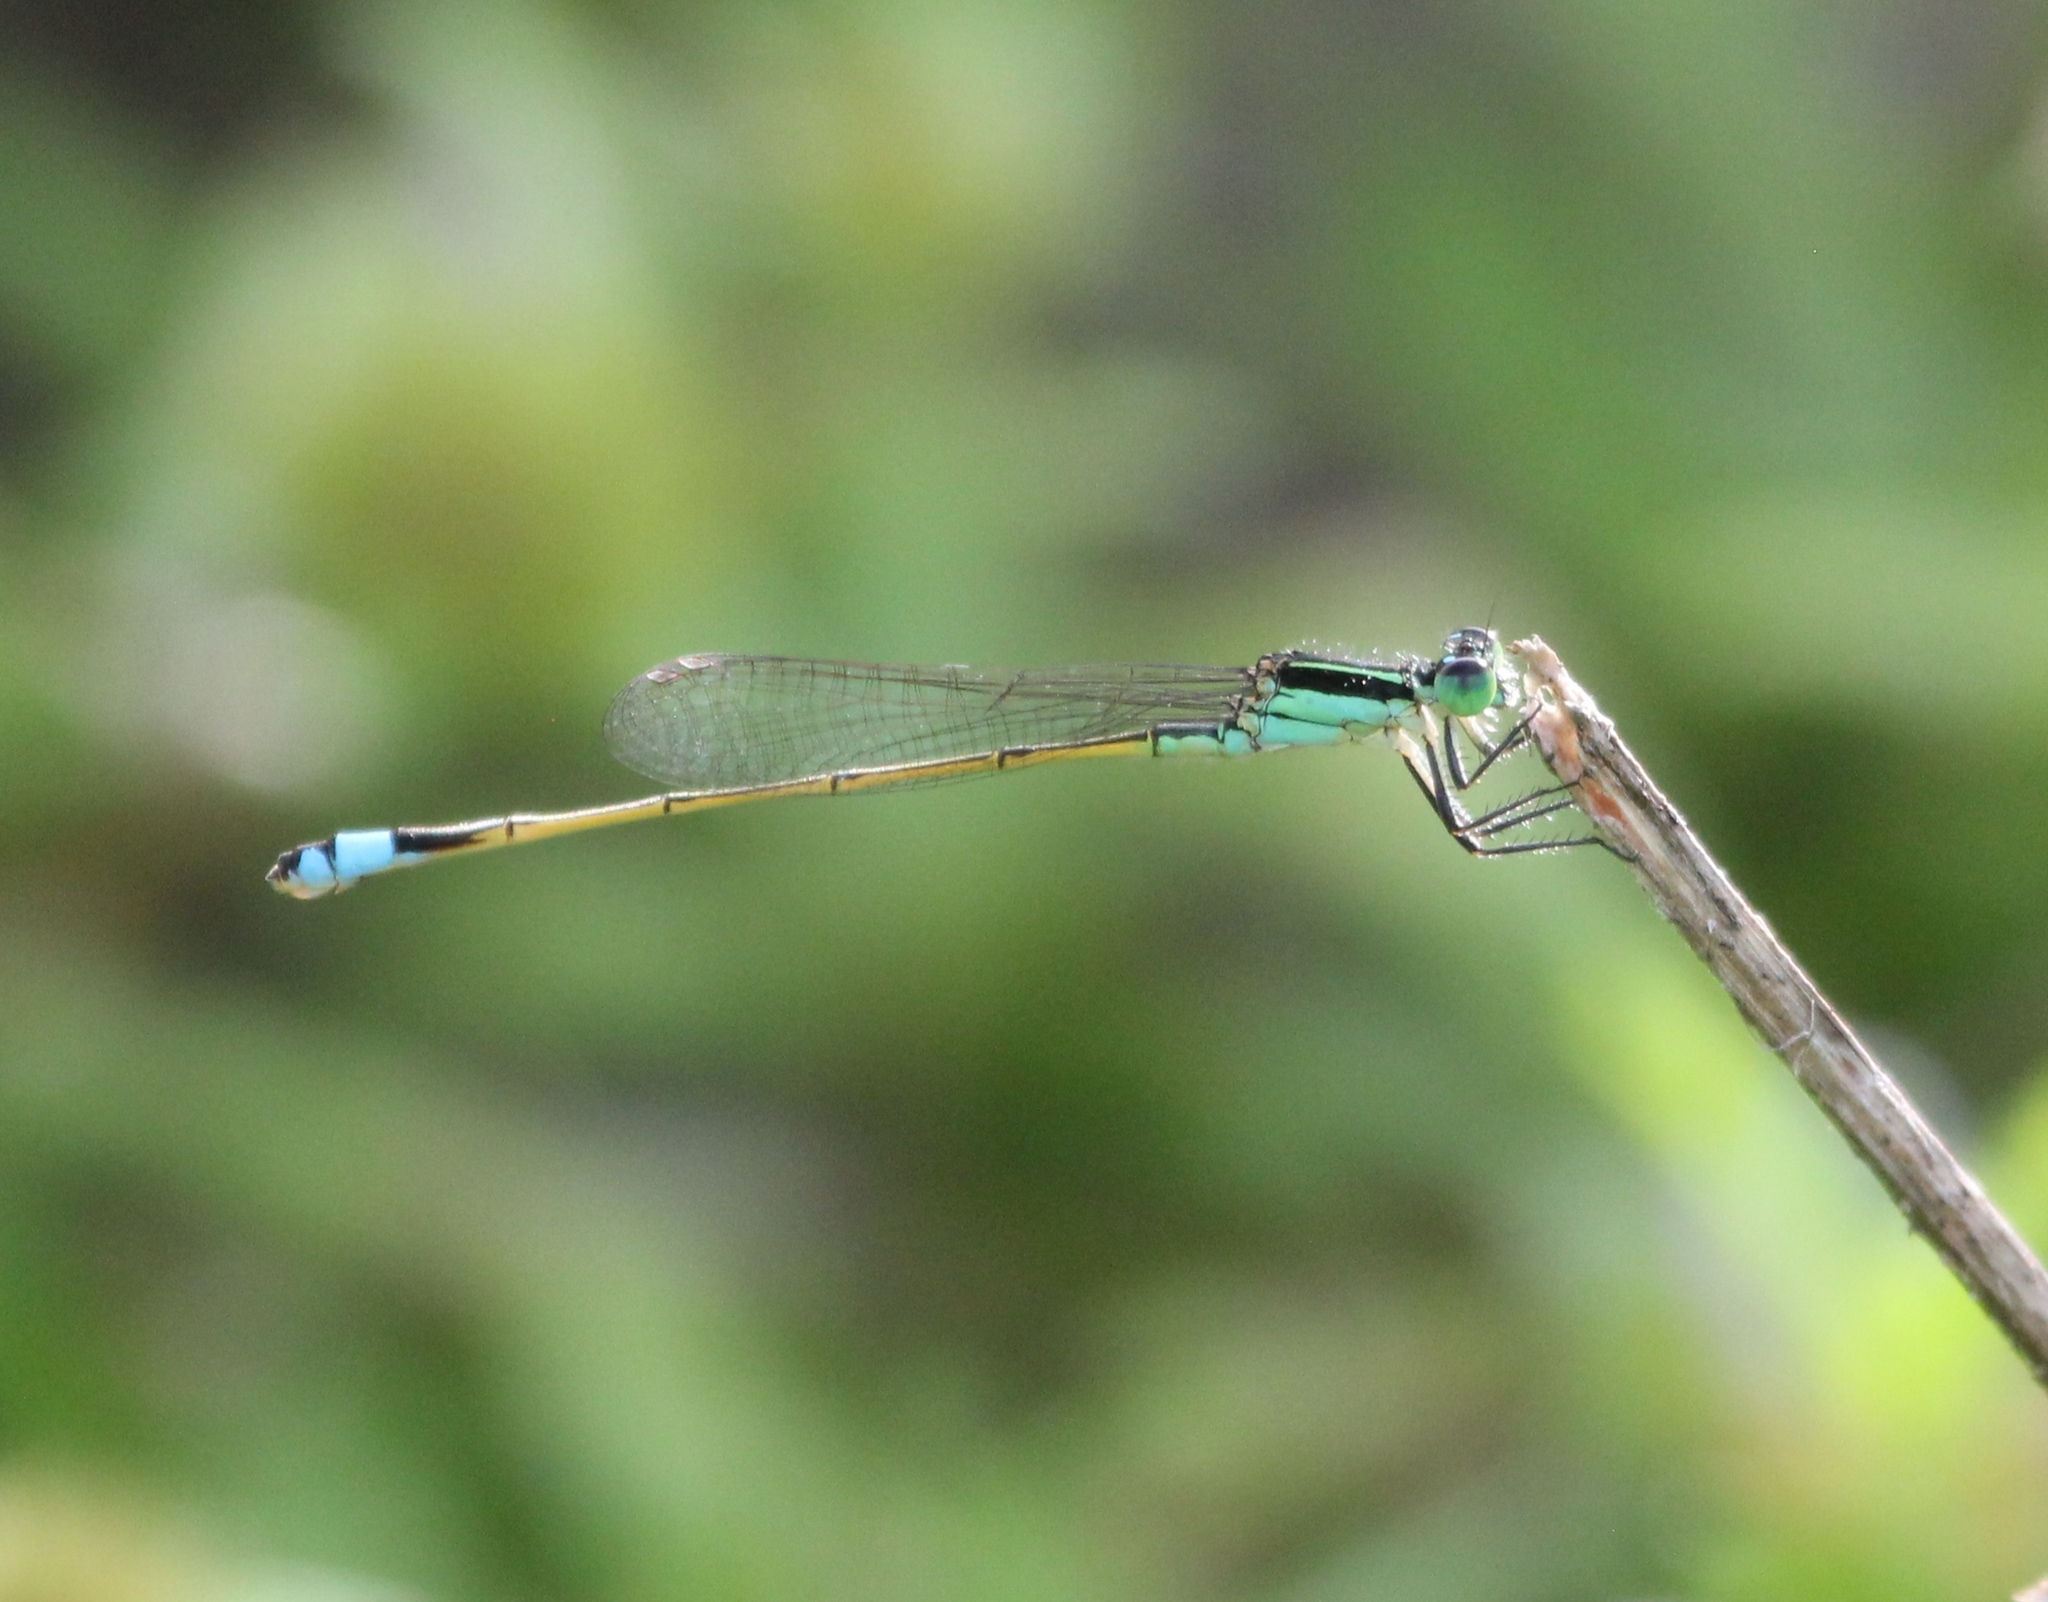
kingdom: Animalia
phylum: Arthropoda
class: Insecta
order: Odonata
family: Coenagrionidae
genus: Ischnura
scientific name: Ischnura ramburii
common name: Rambur's forktail
